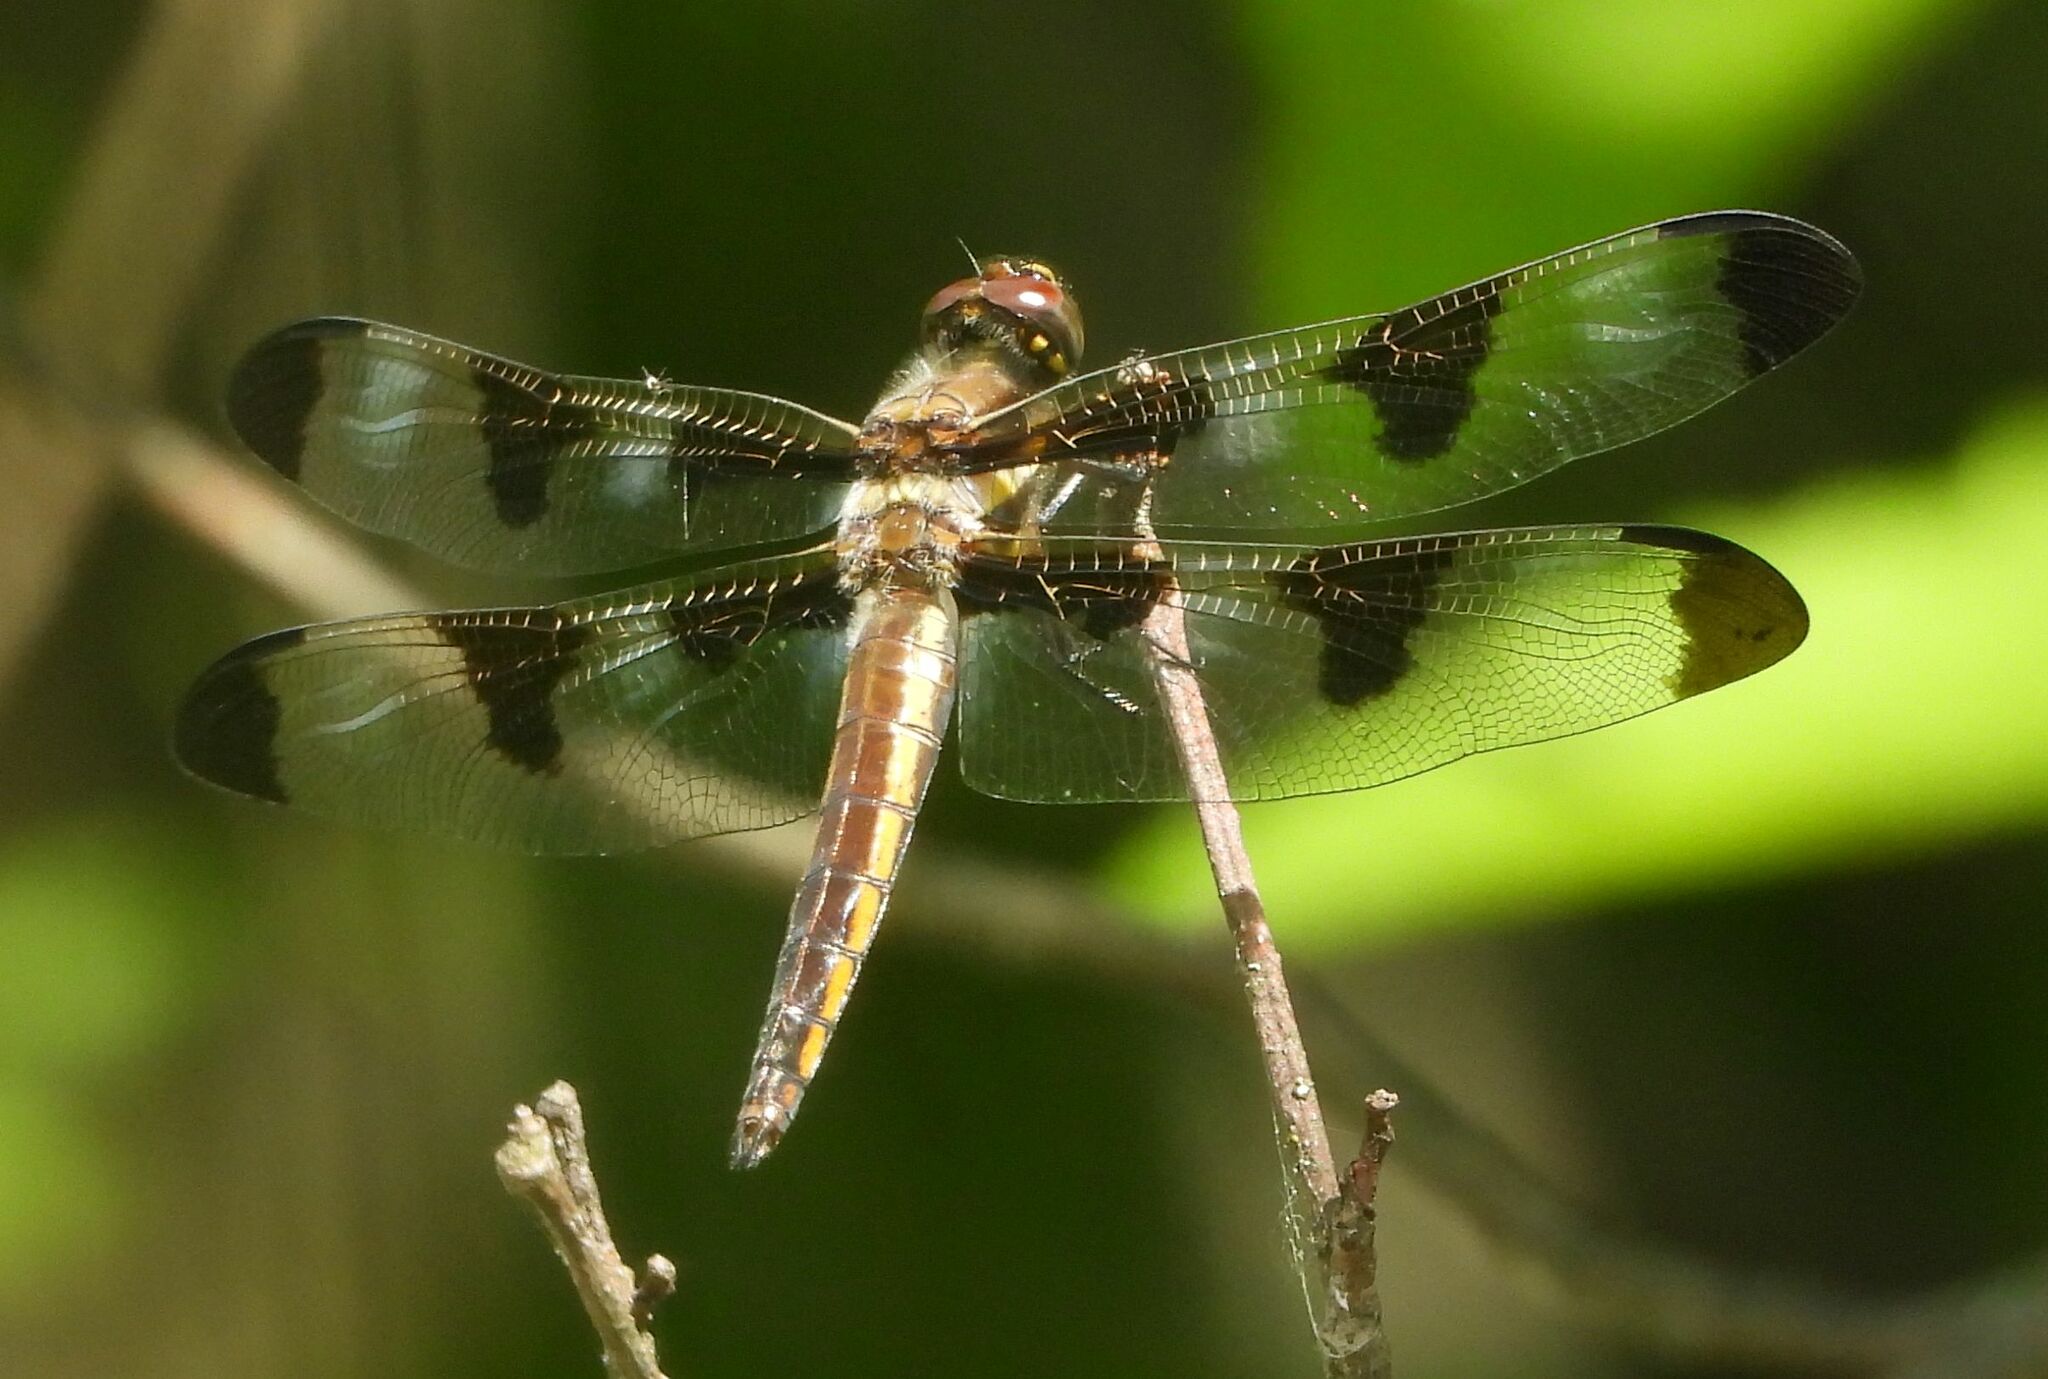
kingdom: Animalia
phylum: Arthropoda
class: Insecta
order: Odonata
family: Libellulidae
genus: Libellula
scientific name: Libellula pulchella
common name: Twelve-spotted skimmer
